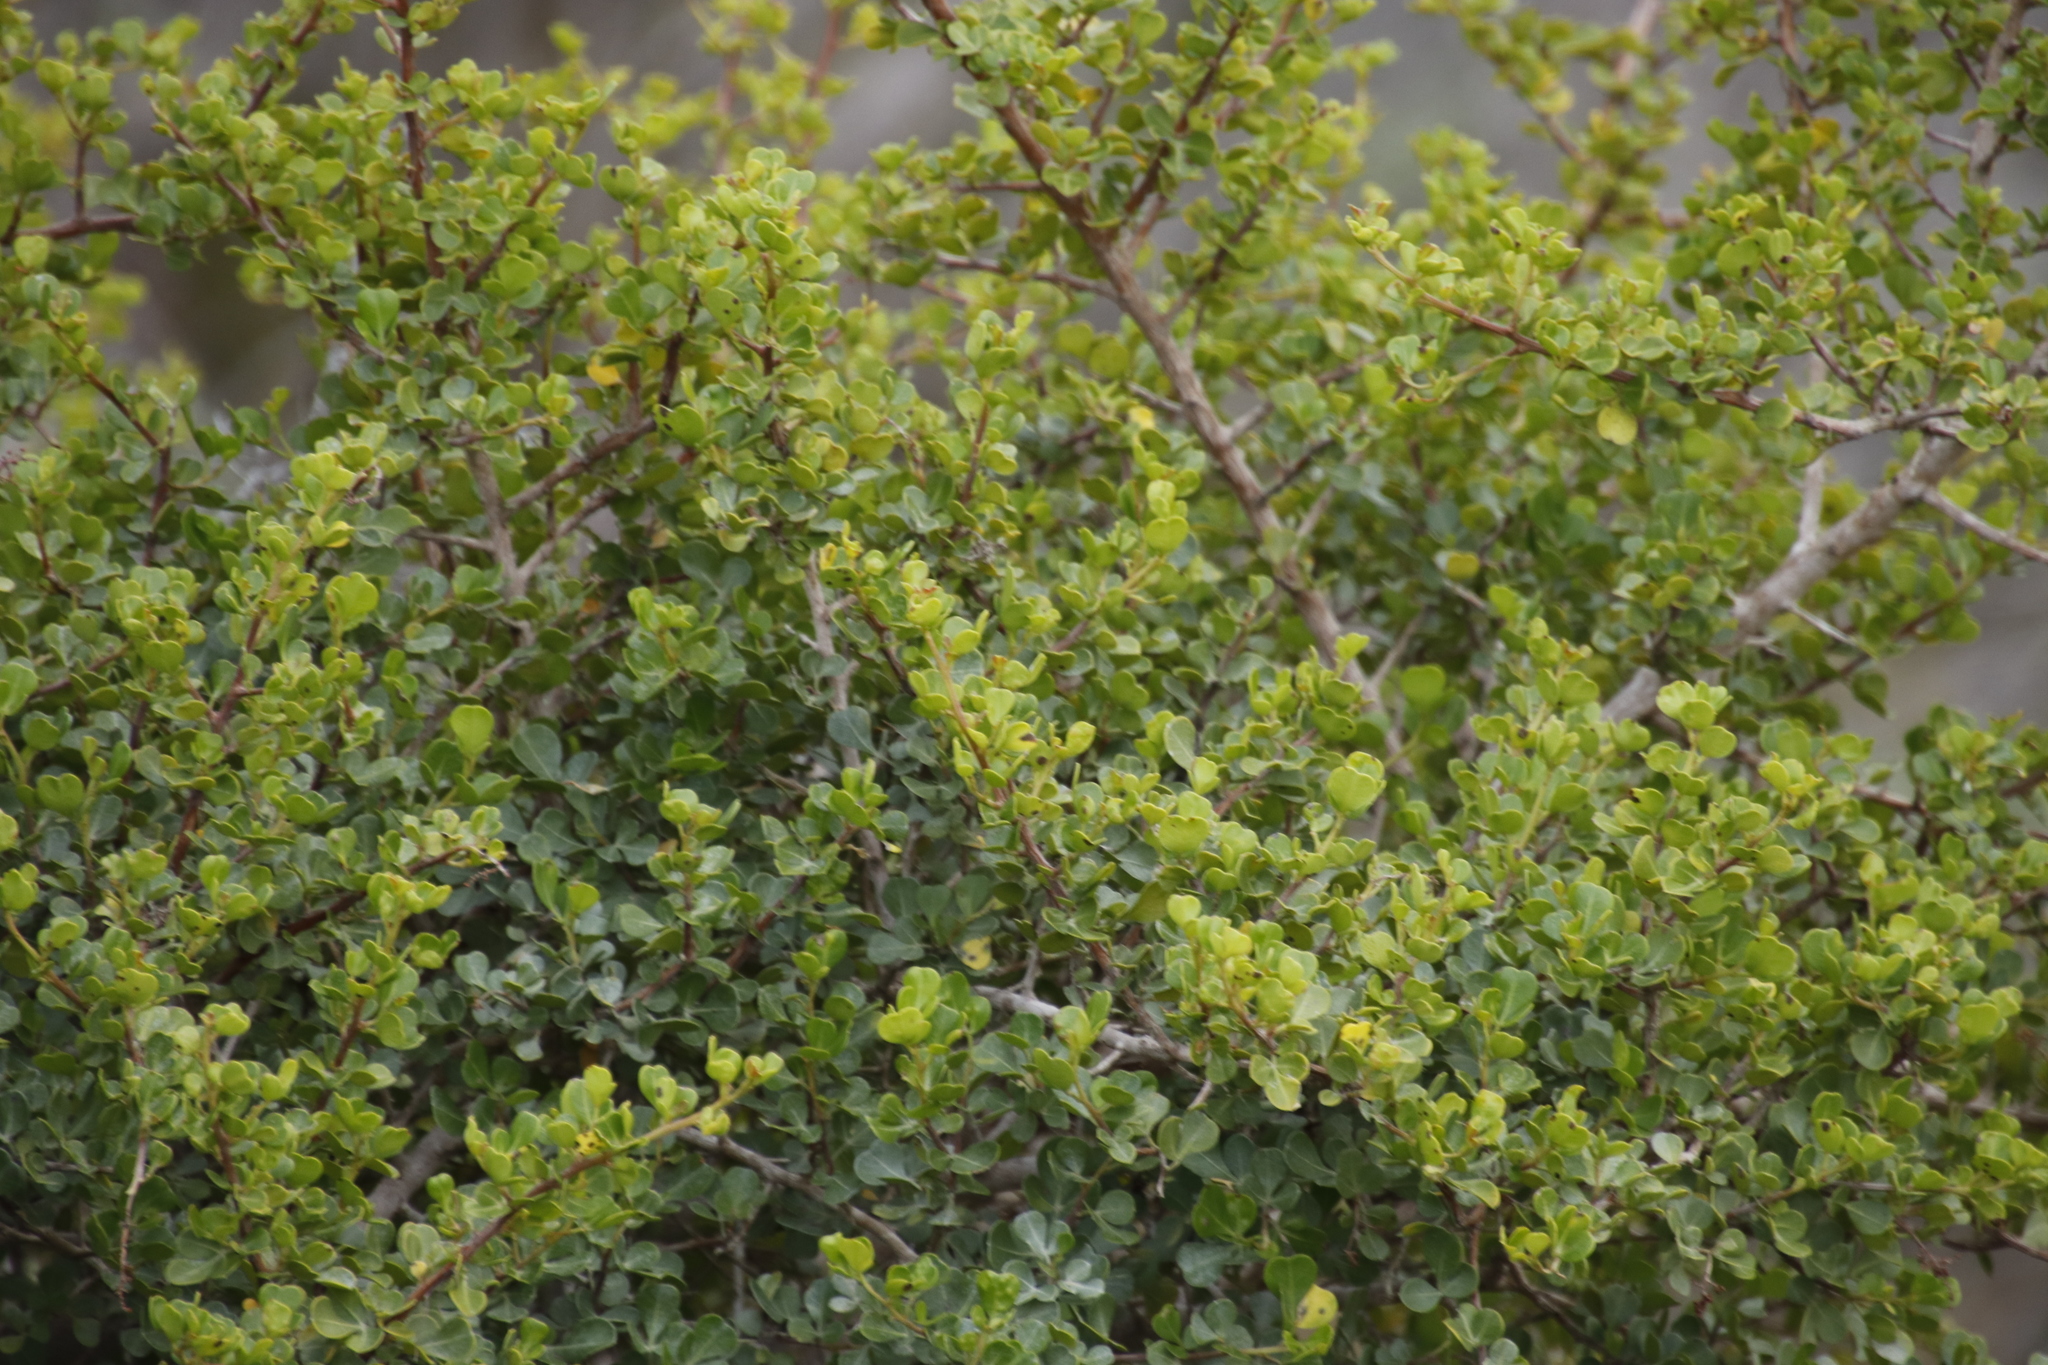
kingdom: Plantae
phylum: Tracheophyta
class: Magnoliopsida
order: Sapindales
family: Anacardiaceae
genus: Searsia
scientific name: Searsia glauca
